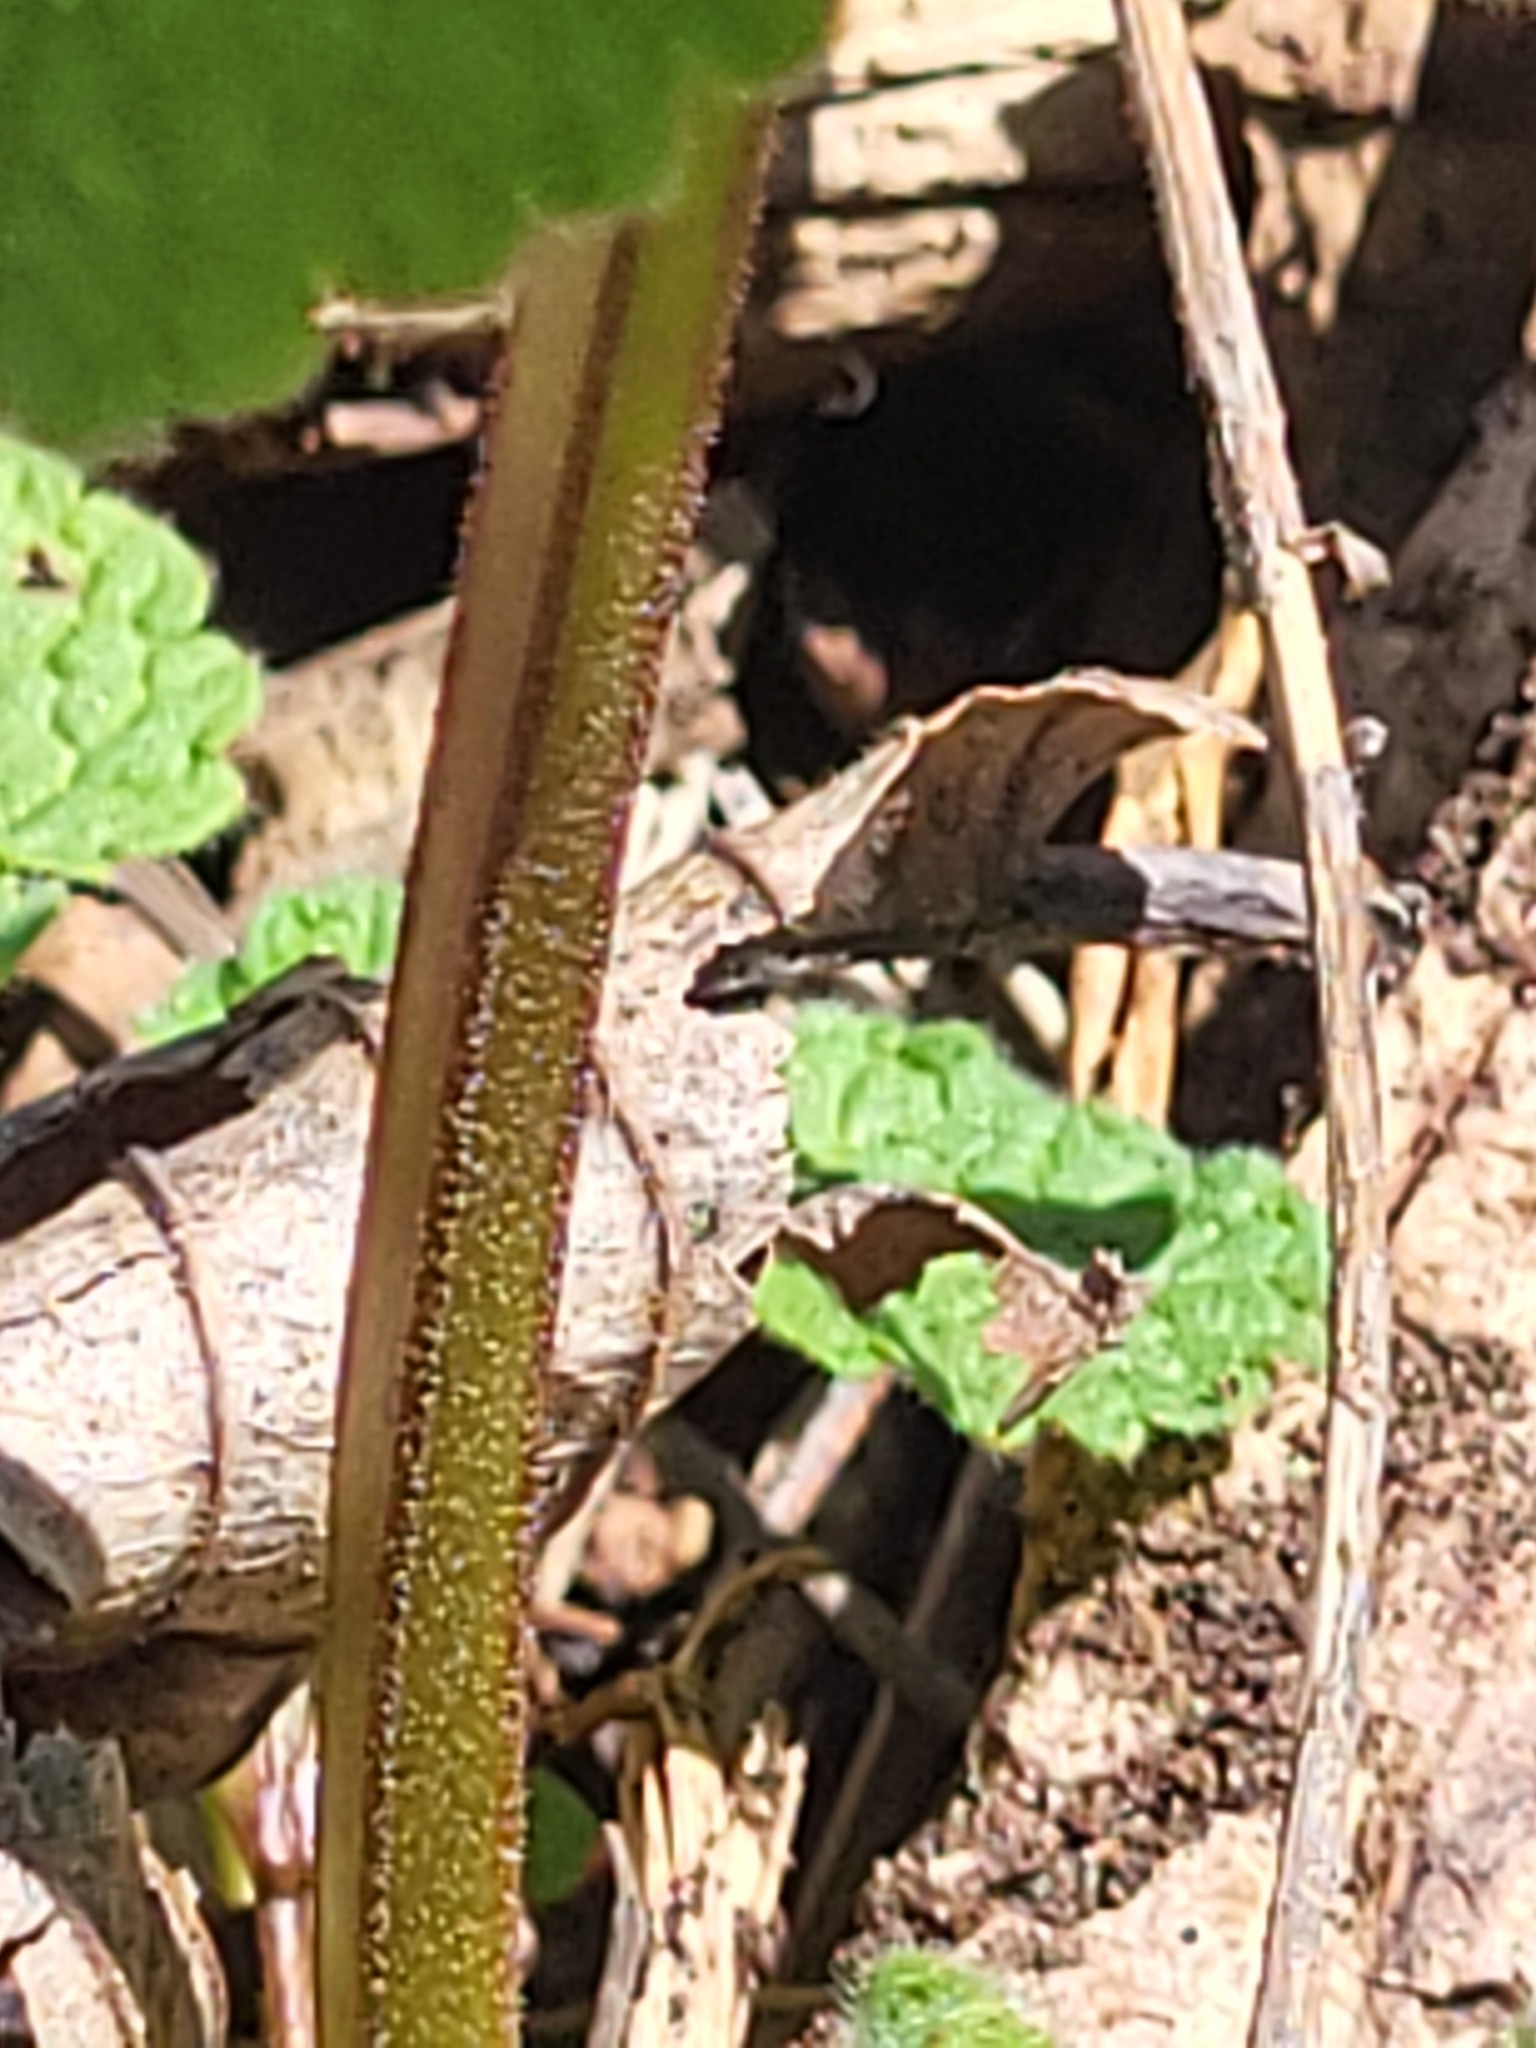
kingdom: Plantae
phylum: Tracheophyta
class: Magnoliopsida
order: Brassicales
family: Brassicaceae
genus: Alliaria
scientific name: Alliaria petiolata
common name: Garlic mustard
